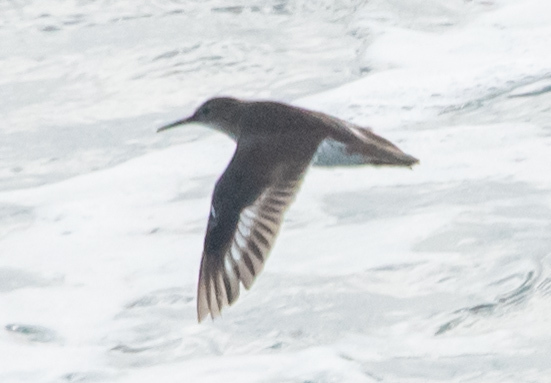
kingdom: Animalia
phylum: Chordata
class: Aves
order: Charadriiformes
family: Scolopacidae
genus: Actitis
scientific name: Actitis macularius
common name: Spotted sandpiper
